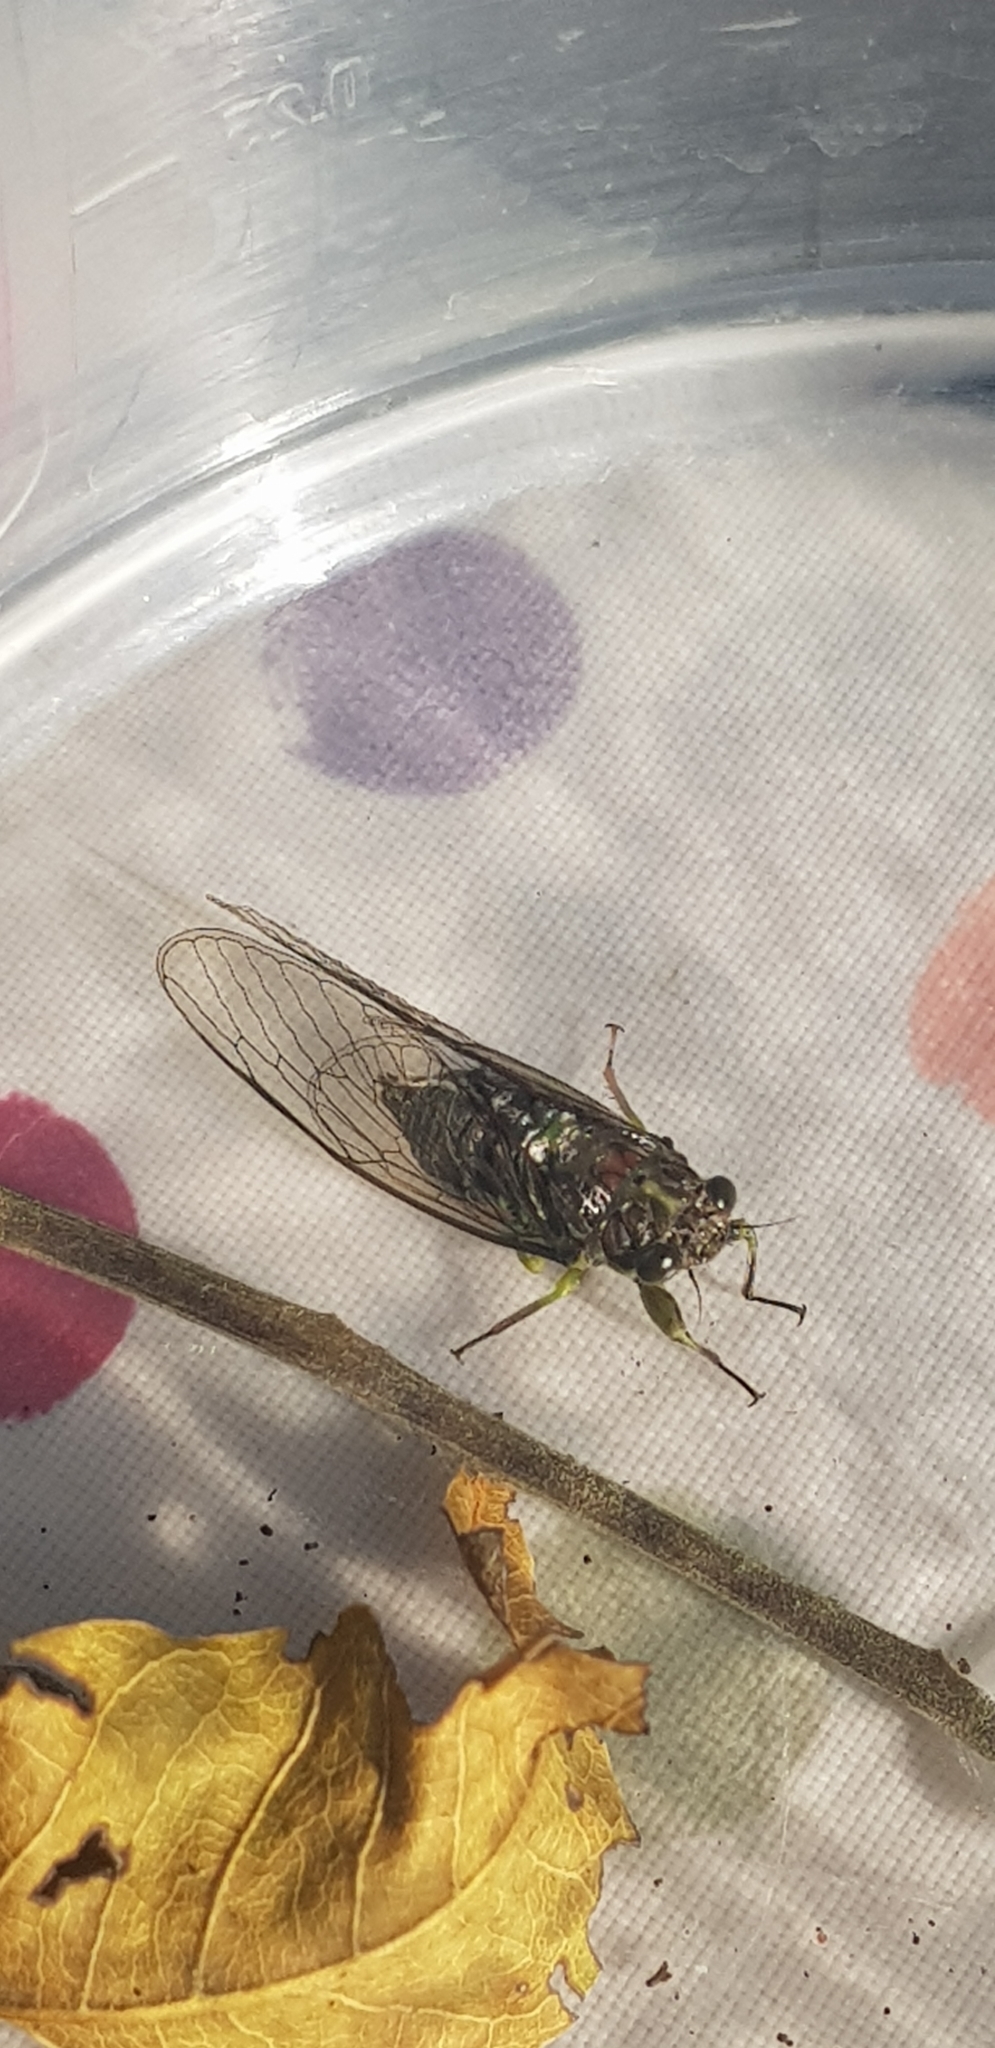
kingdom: Animalia
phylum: Arthropoda
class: Insecta
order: Hemiptera
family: Cicadidae
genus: Kikihia
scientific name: Kikihia scutellaris
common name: Lesser bronze cicada
